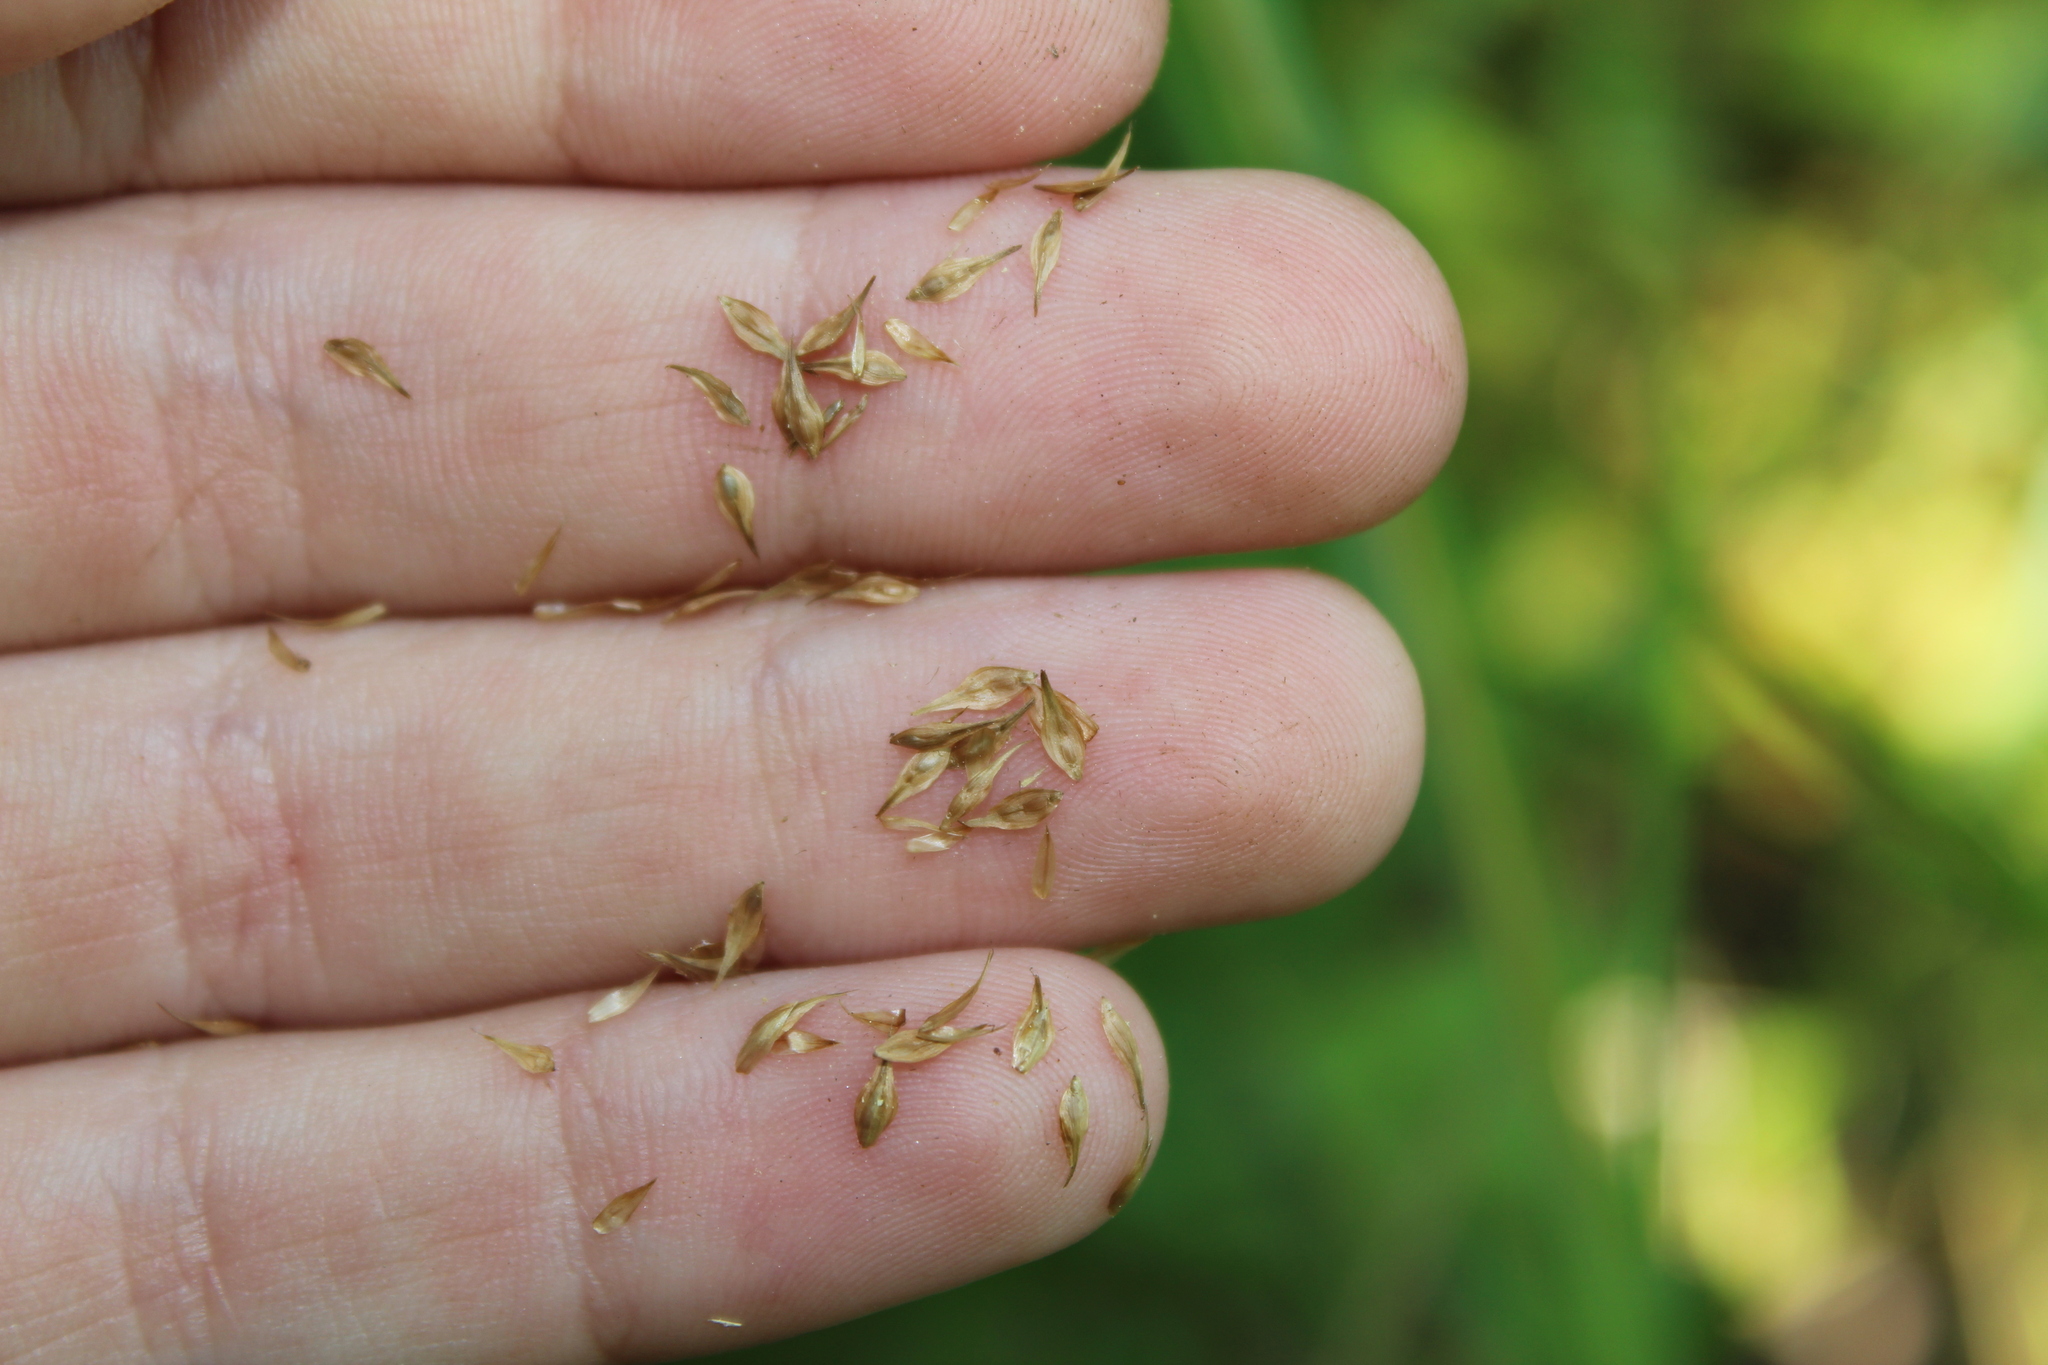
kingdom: Plantae
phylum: Tracheophyta
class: Liliopsida
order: Poales
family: Cyperaceae
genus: Carex
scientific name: Carex scoparia
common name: Broom sedge
